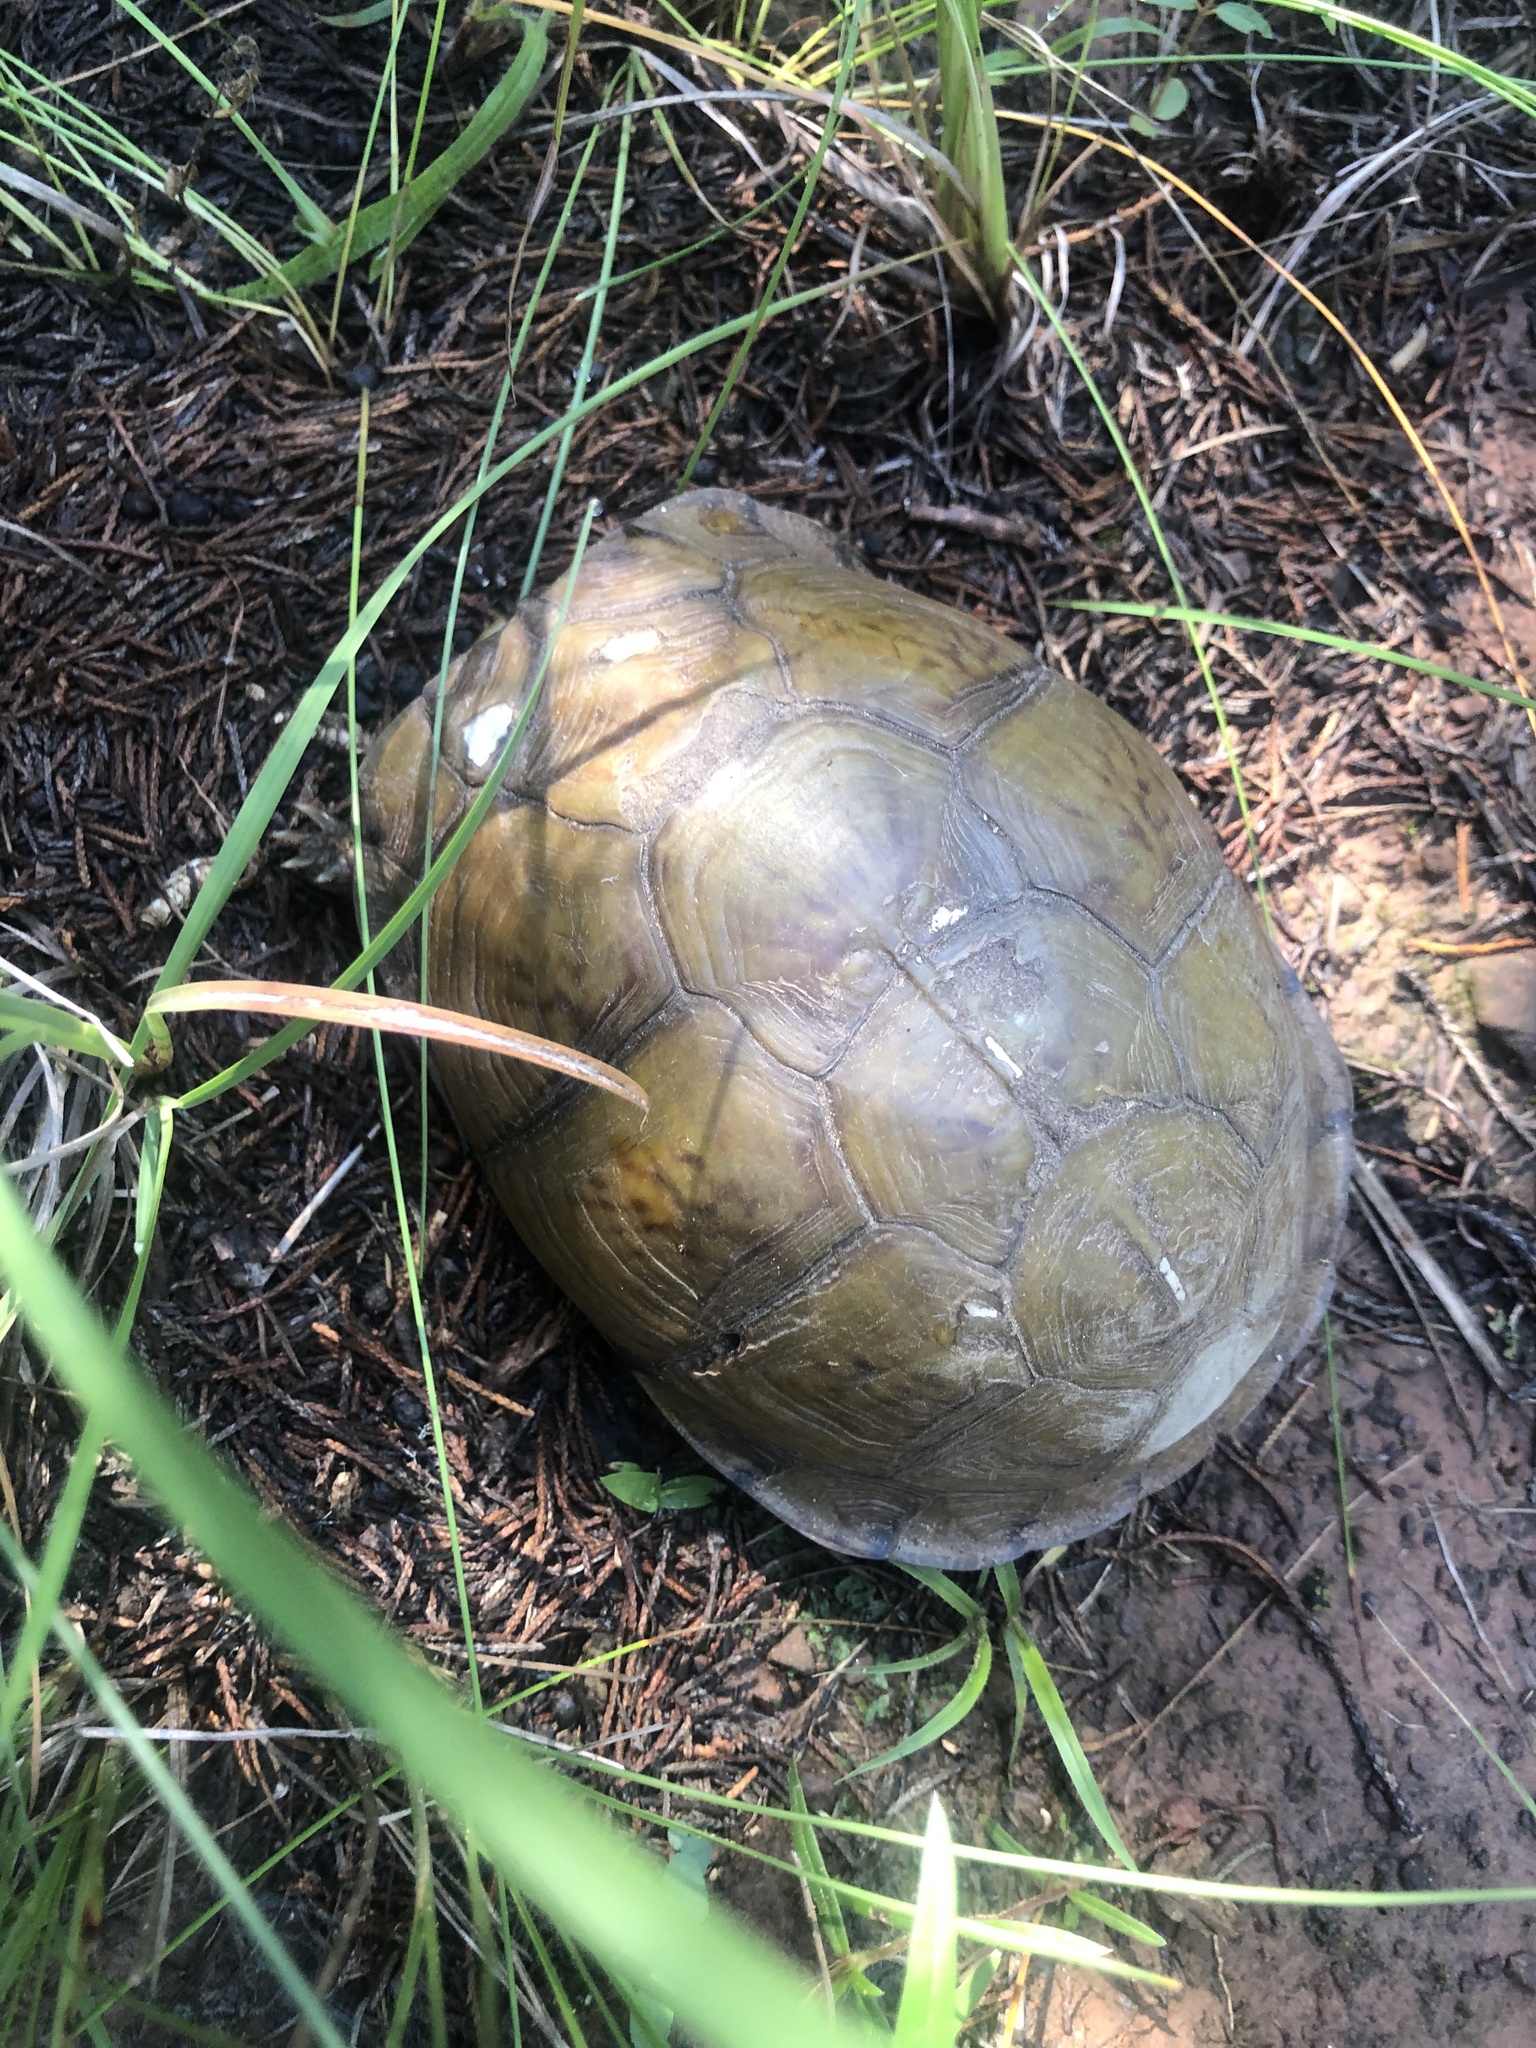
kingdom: Animalia
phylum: Chordata
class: Testudines
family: Emydidae
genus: Terrapene
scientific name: Terrapene carolina
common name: Common box turtle
